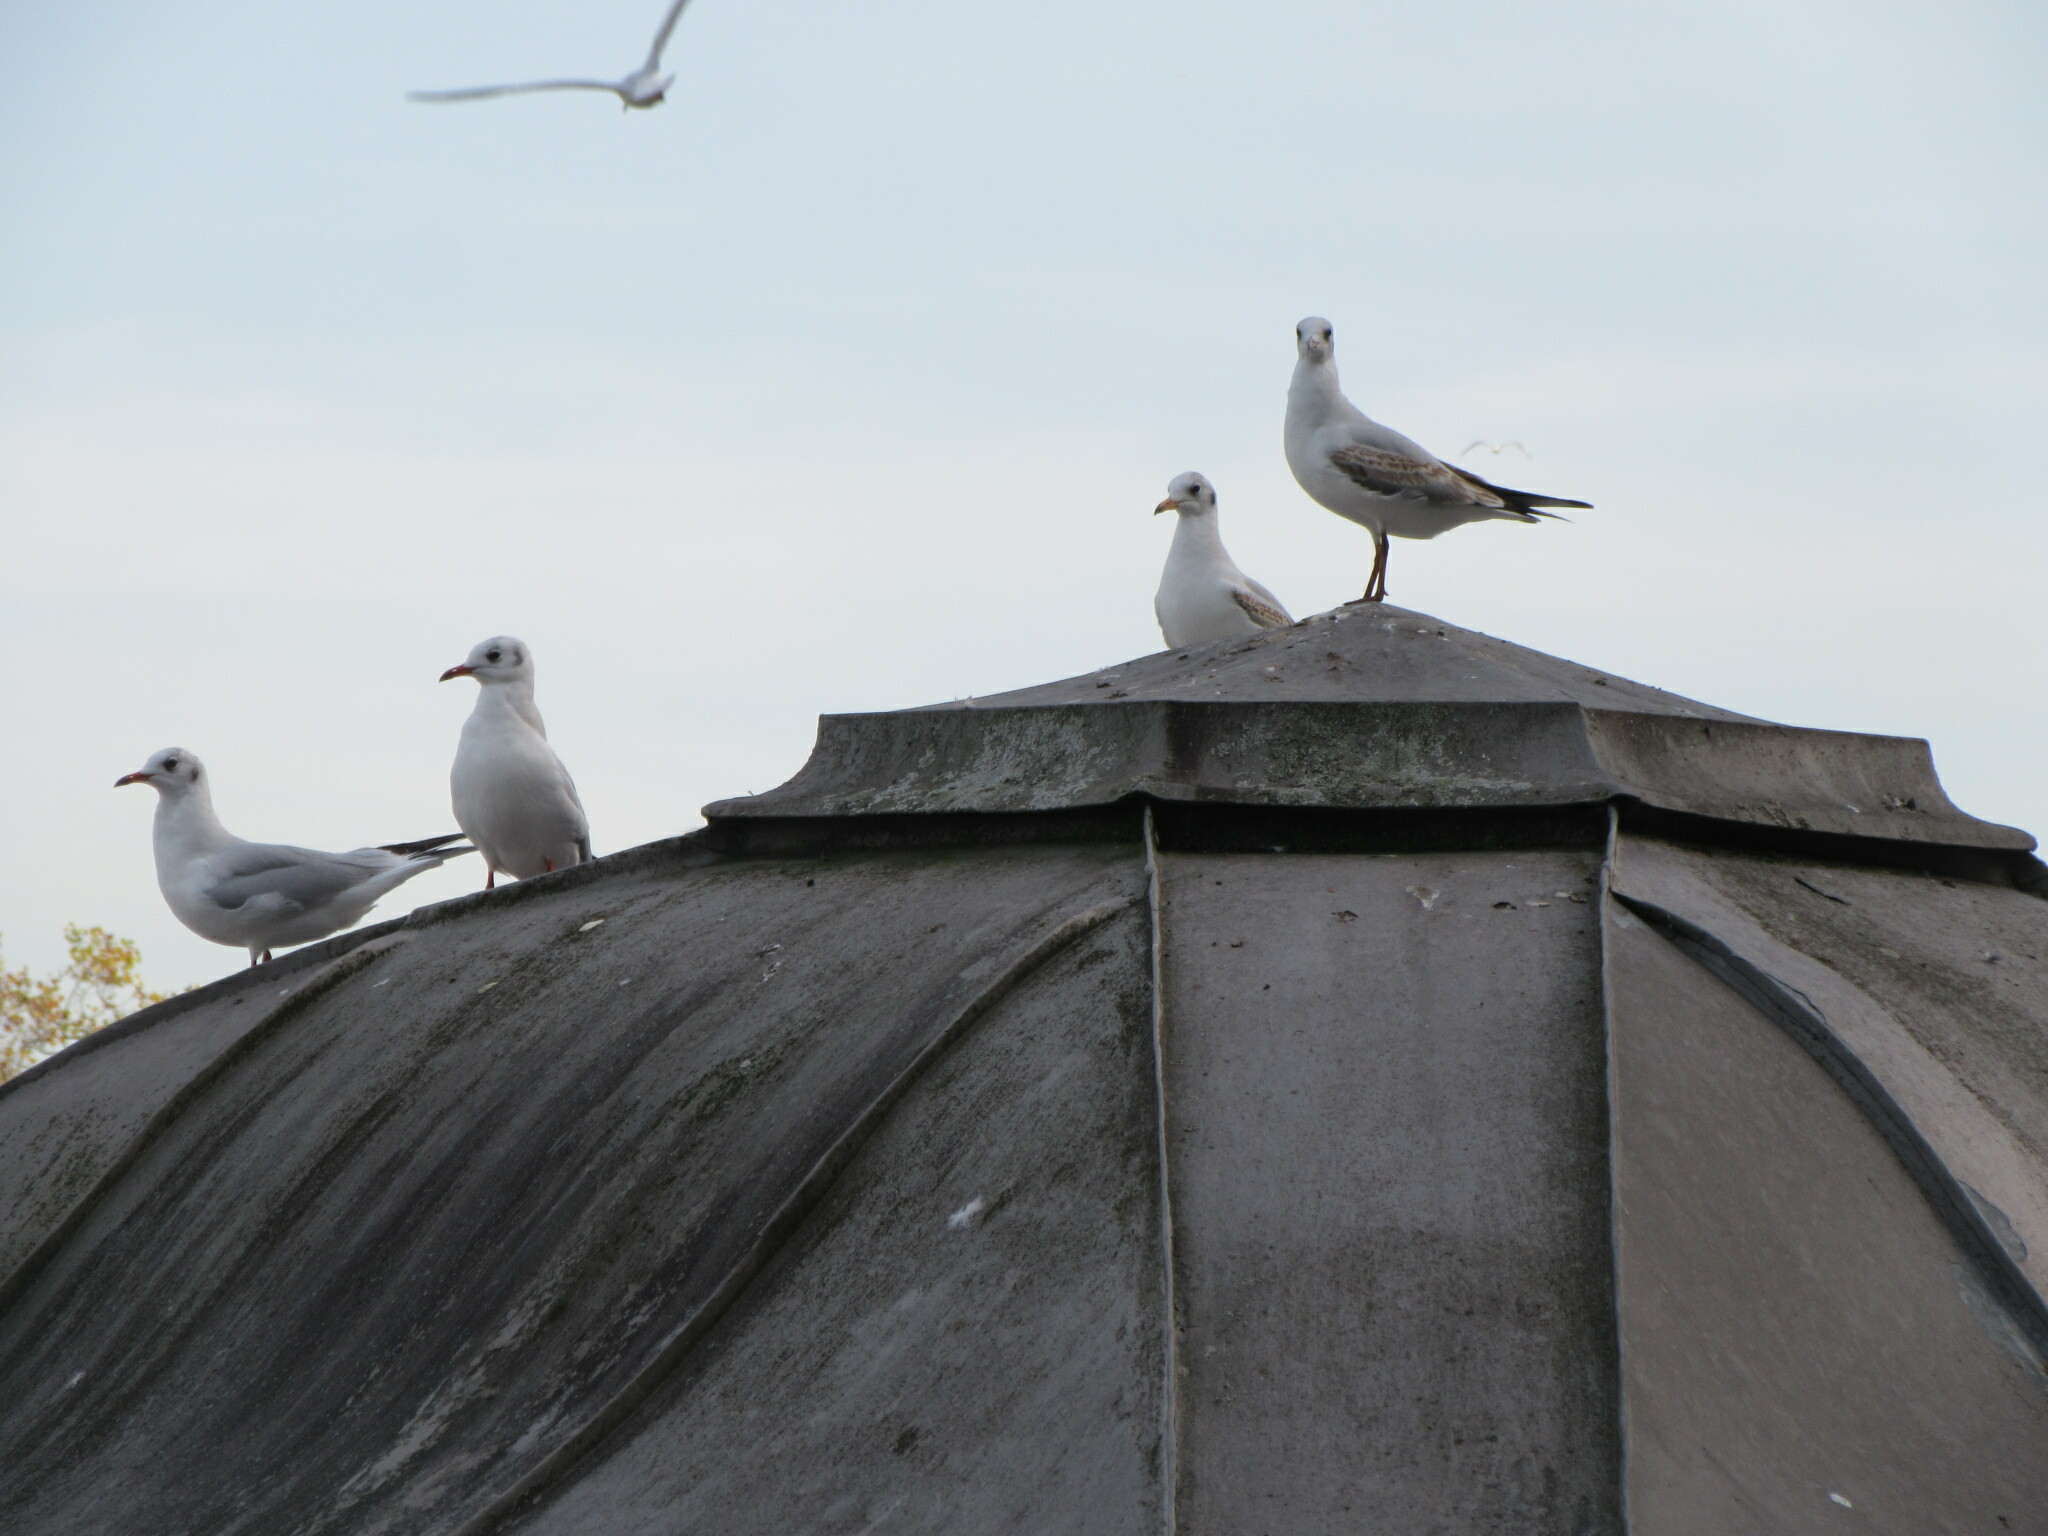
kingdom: Animalia
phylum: Chordata
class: Aves
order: Charadriiformes
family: Laridae
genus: Chroicocephalus
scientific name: Chroicocephalus ridibundus
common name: Black-headed gull
